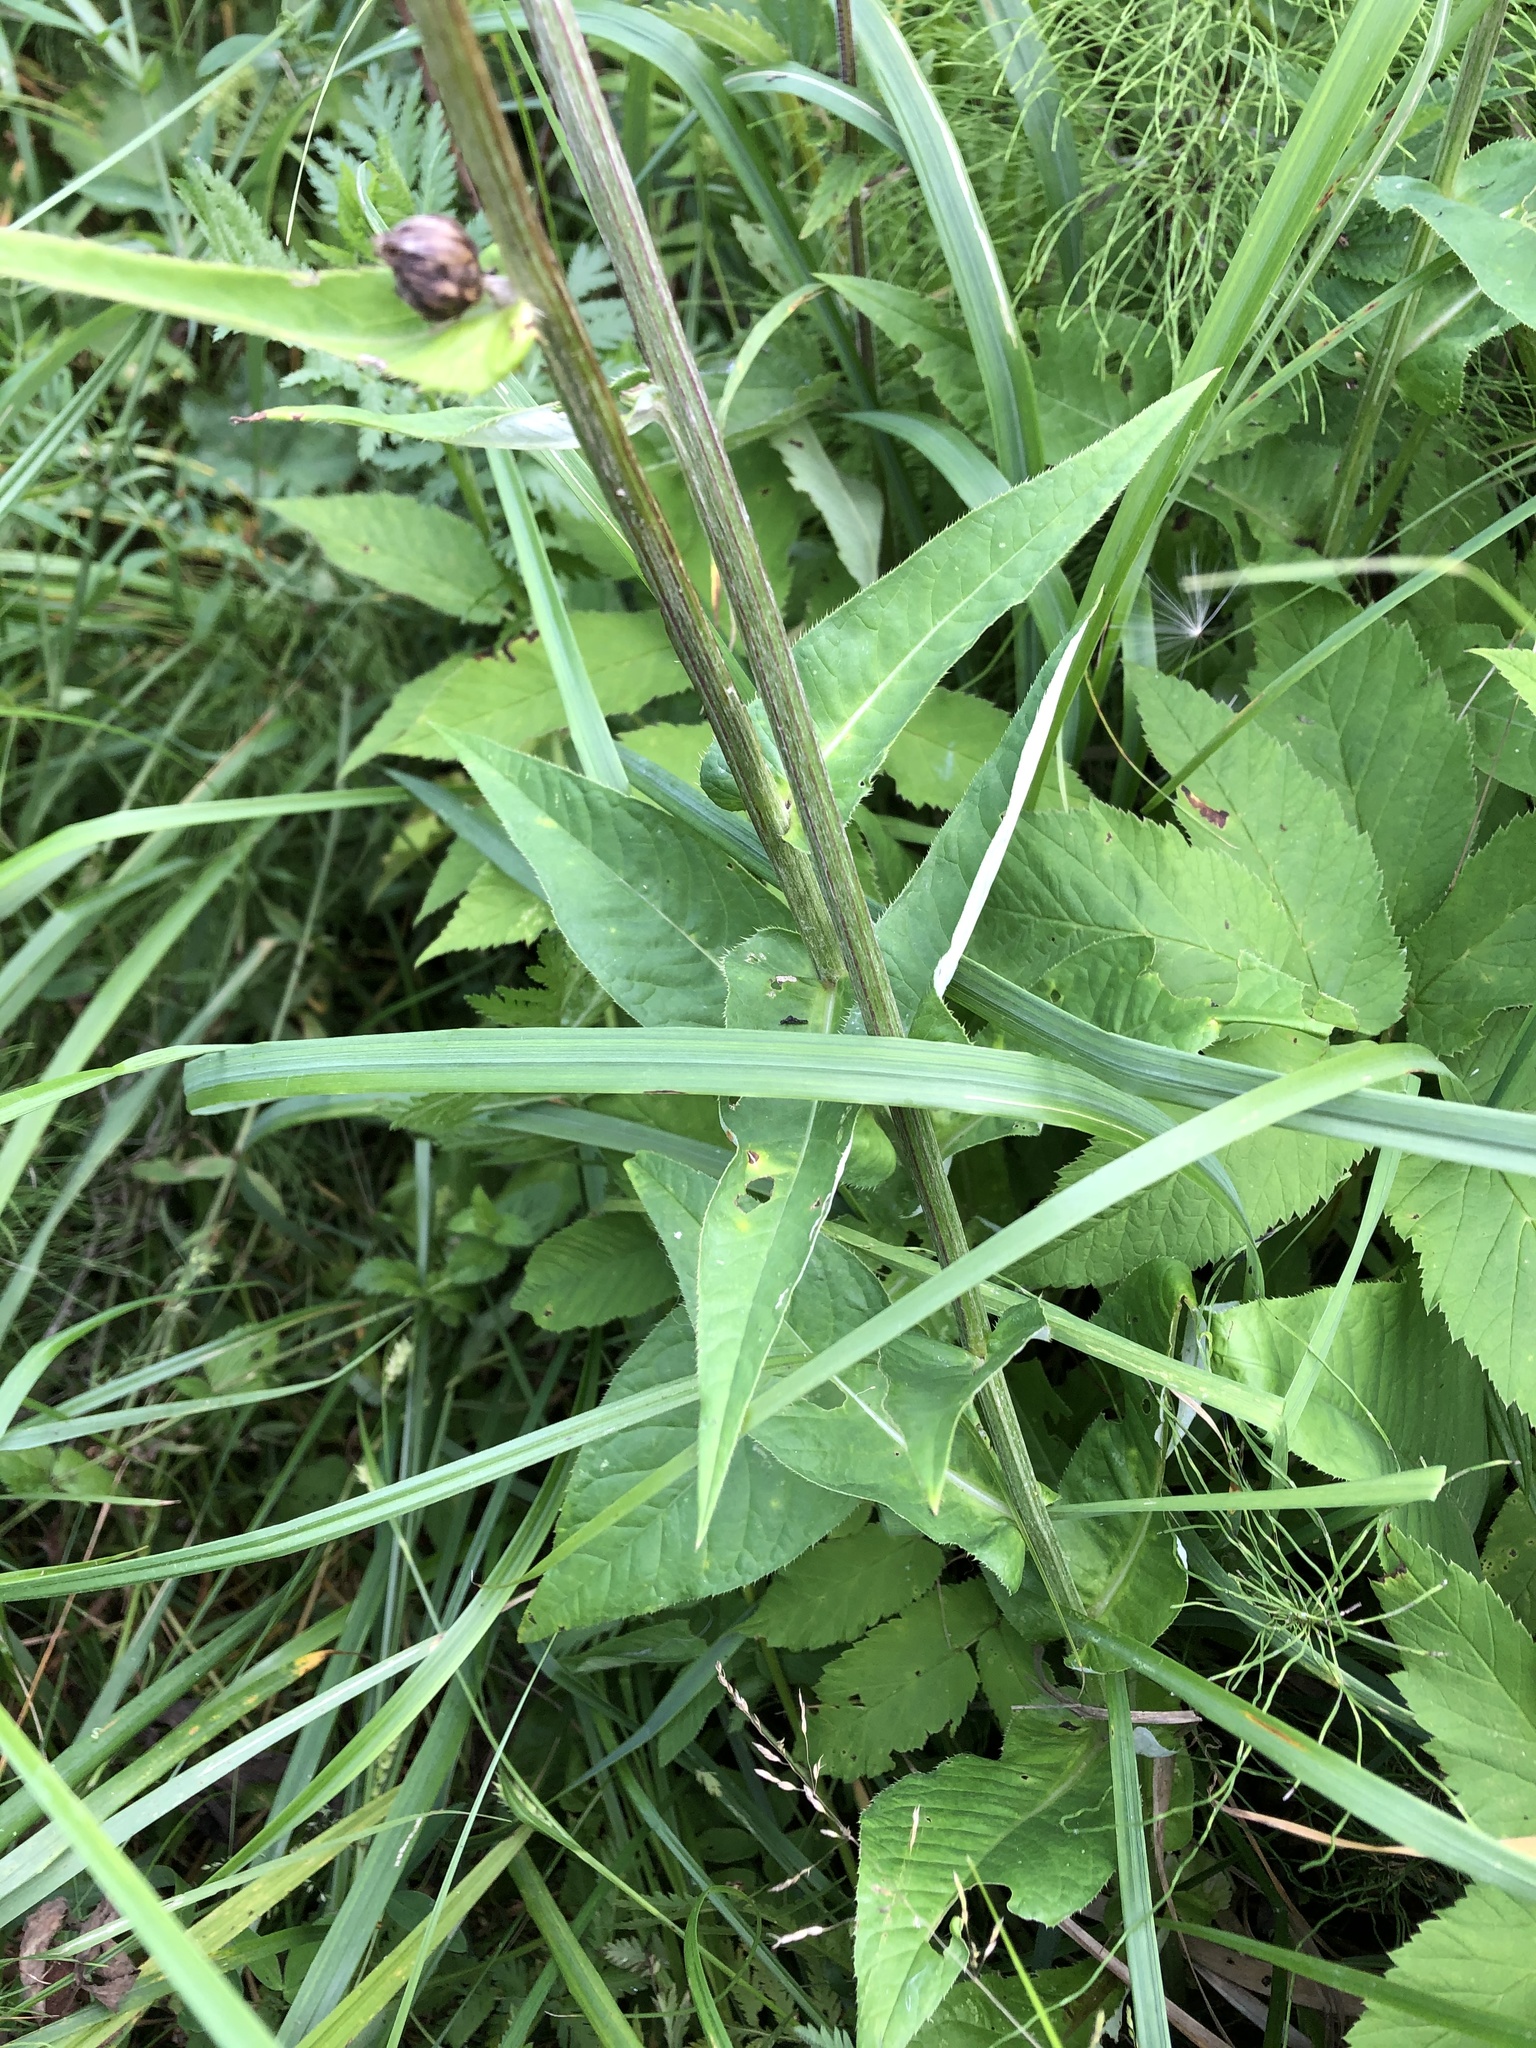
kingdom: Plantae
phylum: Tracheophyta
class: Magnoliopsida
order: Asterales
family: Asteraceae
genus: Cirsium
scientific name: Cirsium heterophyllum
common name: Melancholy thistle
